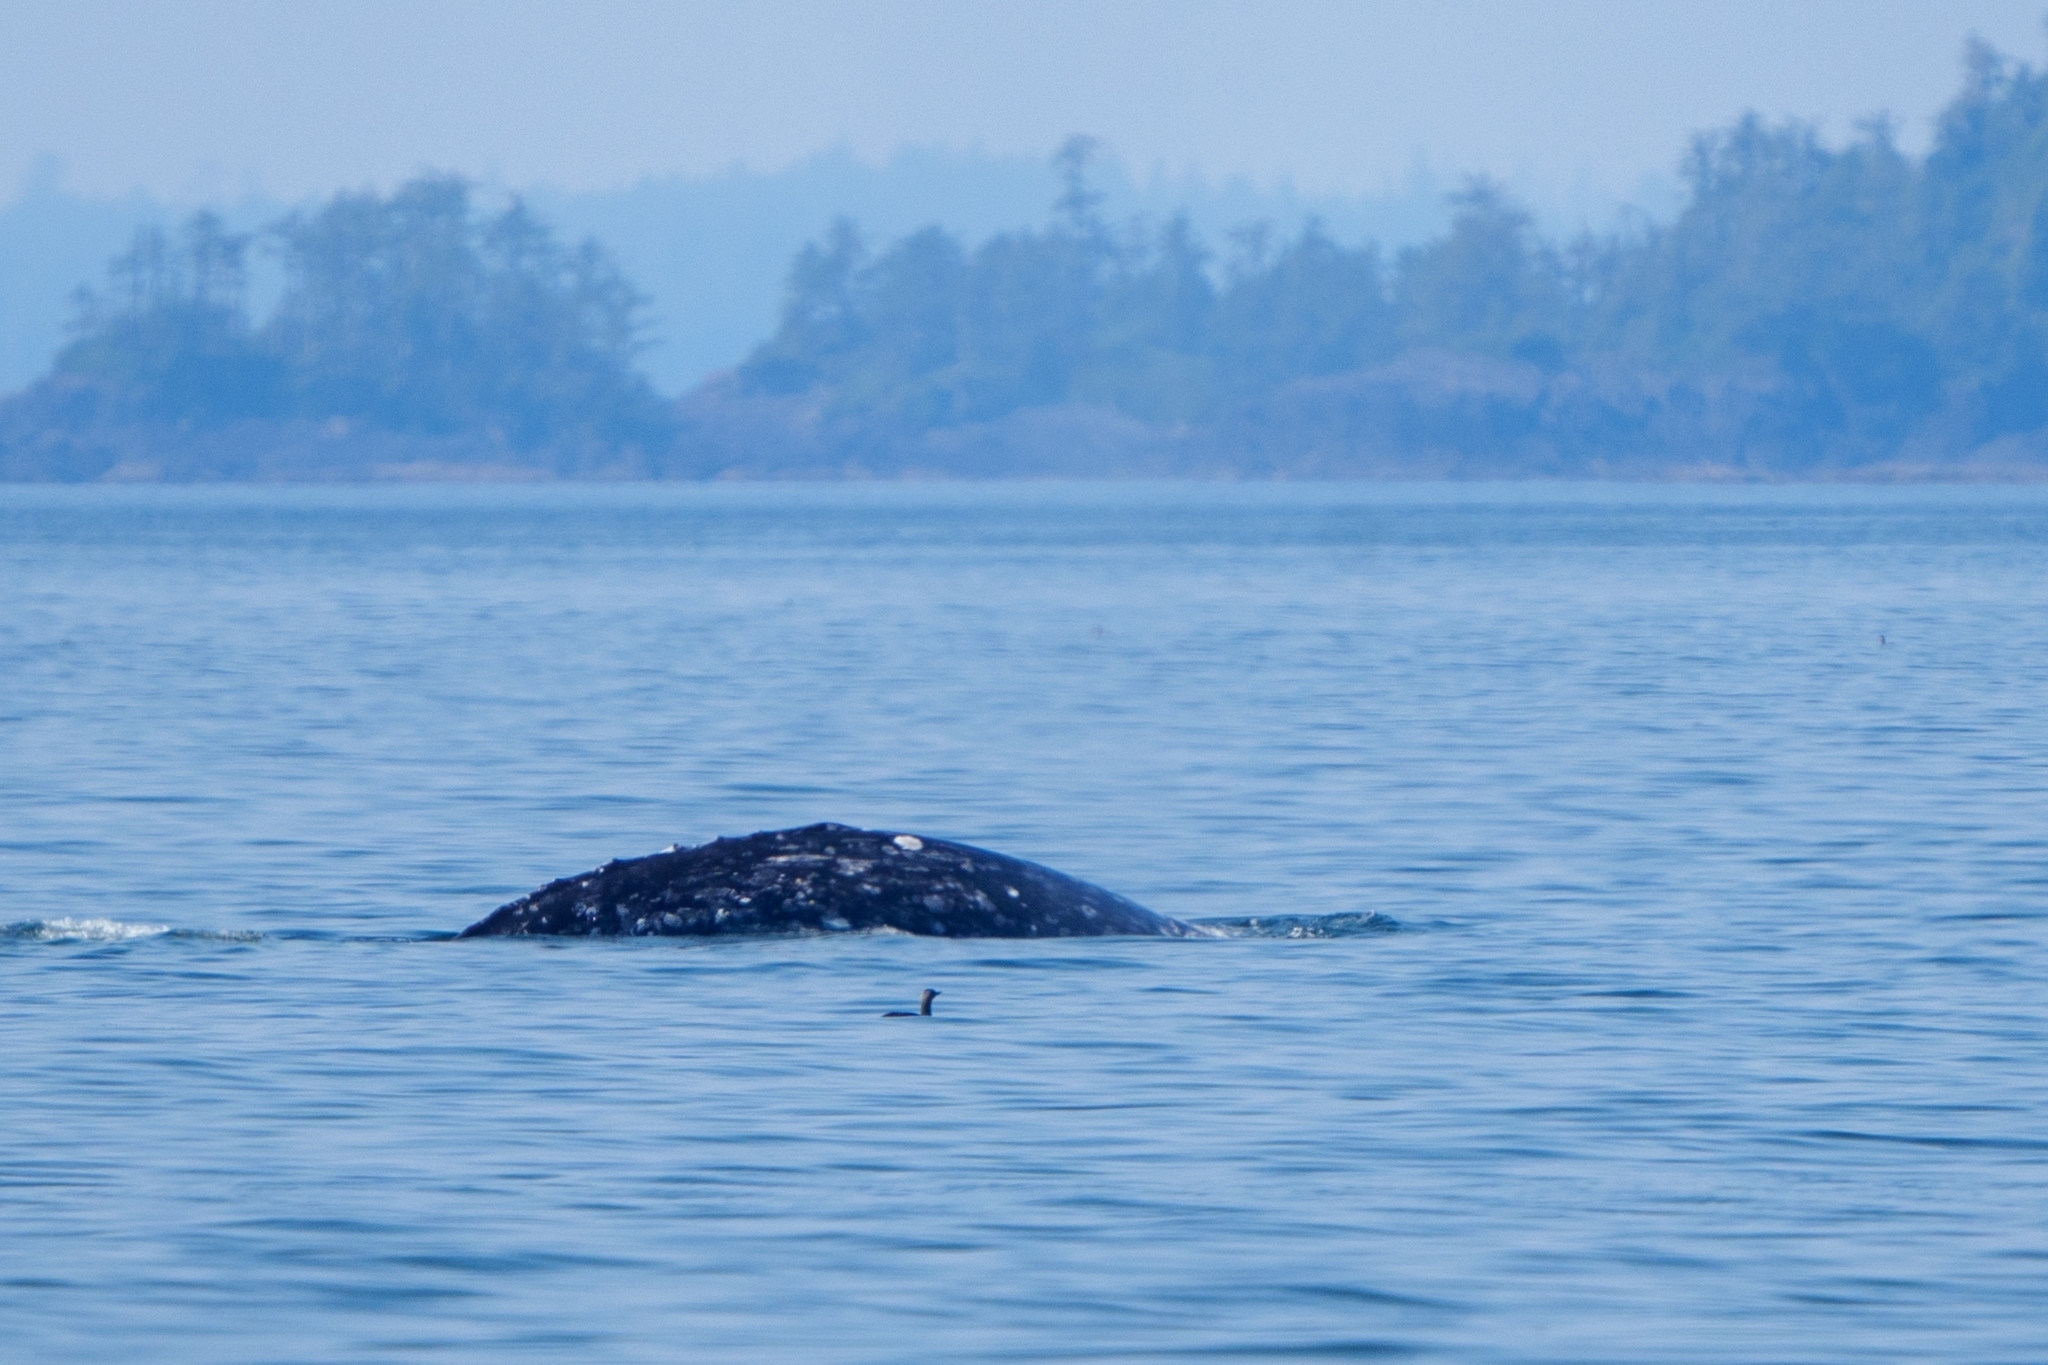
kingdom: Animalia
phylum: Chordata
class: Mammalia
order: Cetacea
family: Eschrichtiidae
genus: Eschrichtius
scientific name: Eschrichtius robustus
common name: Gray whale
